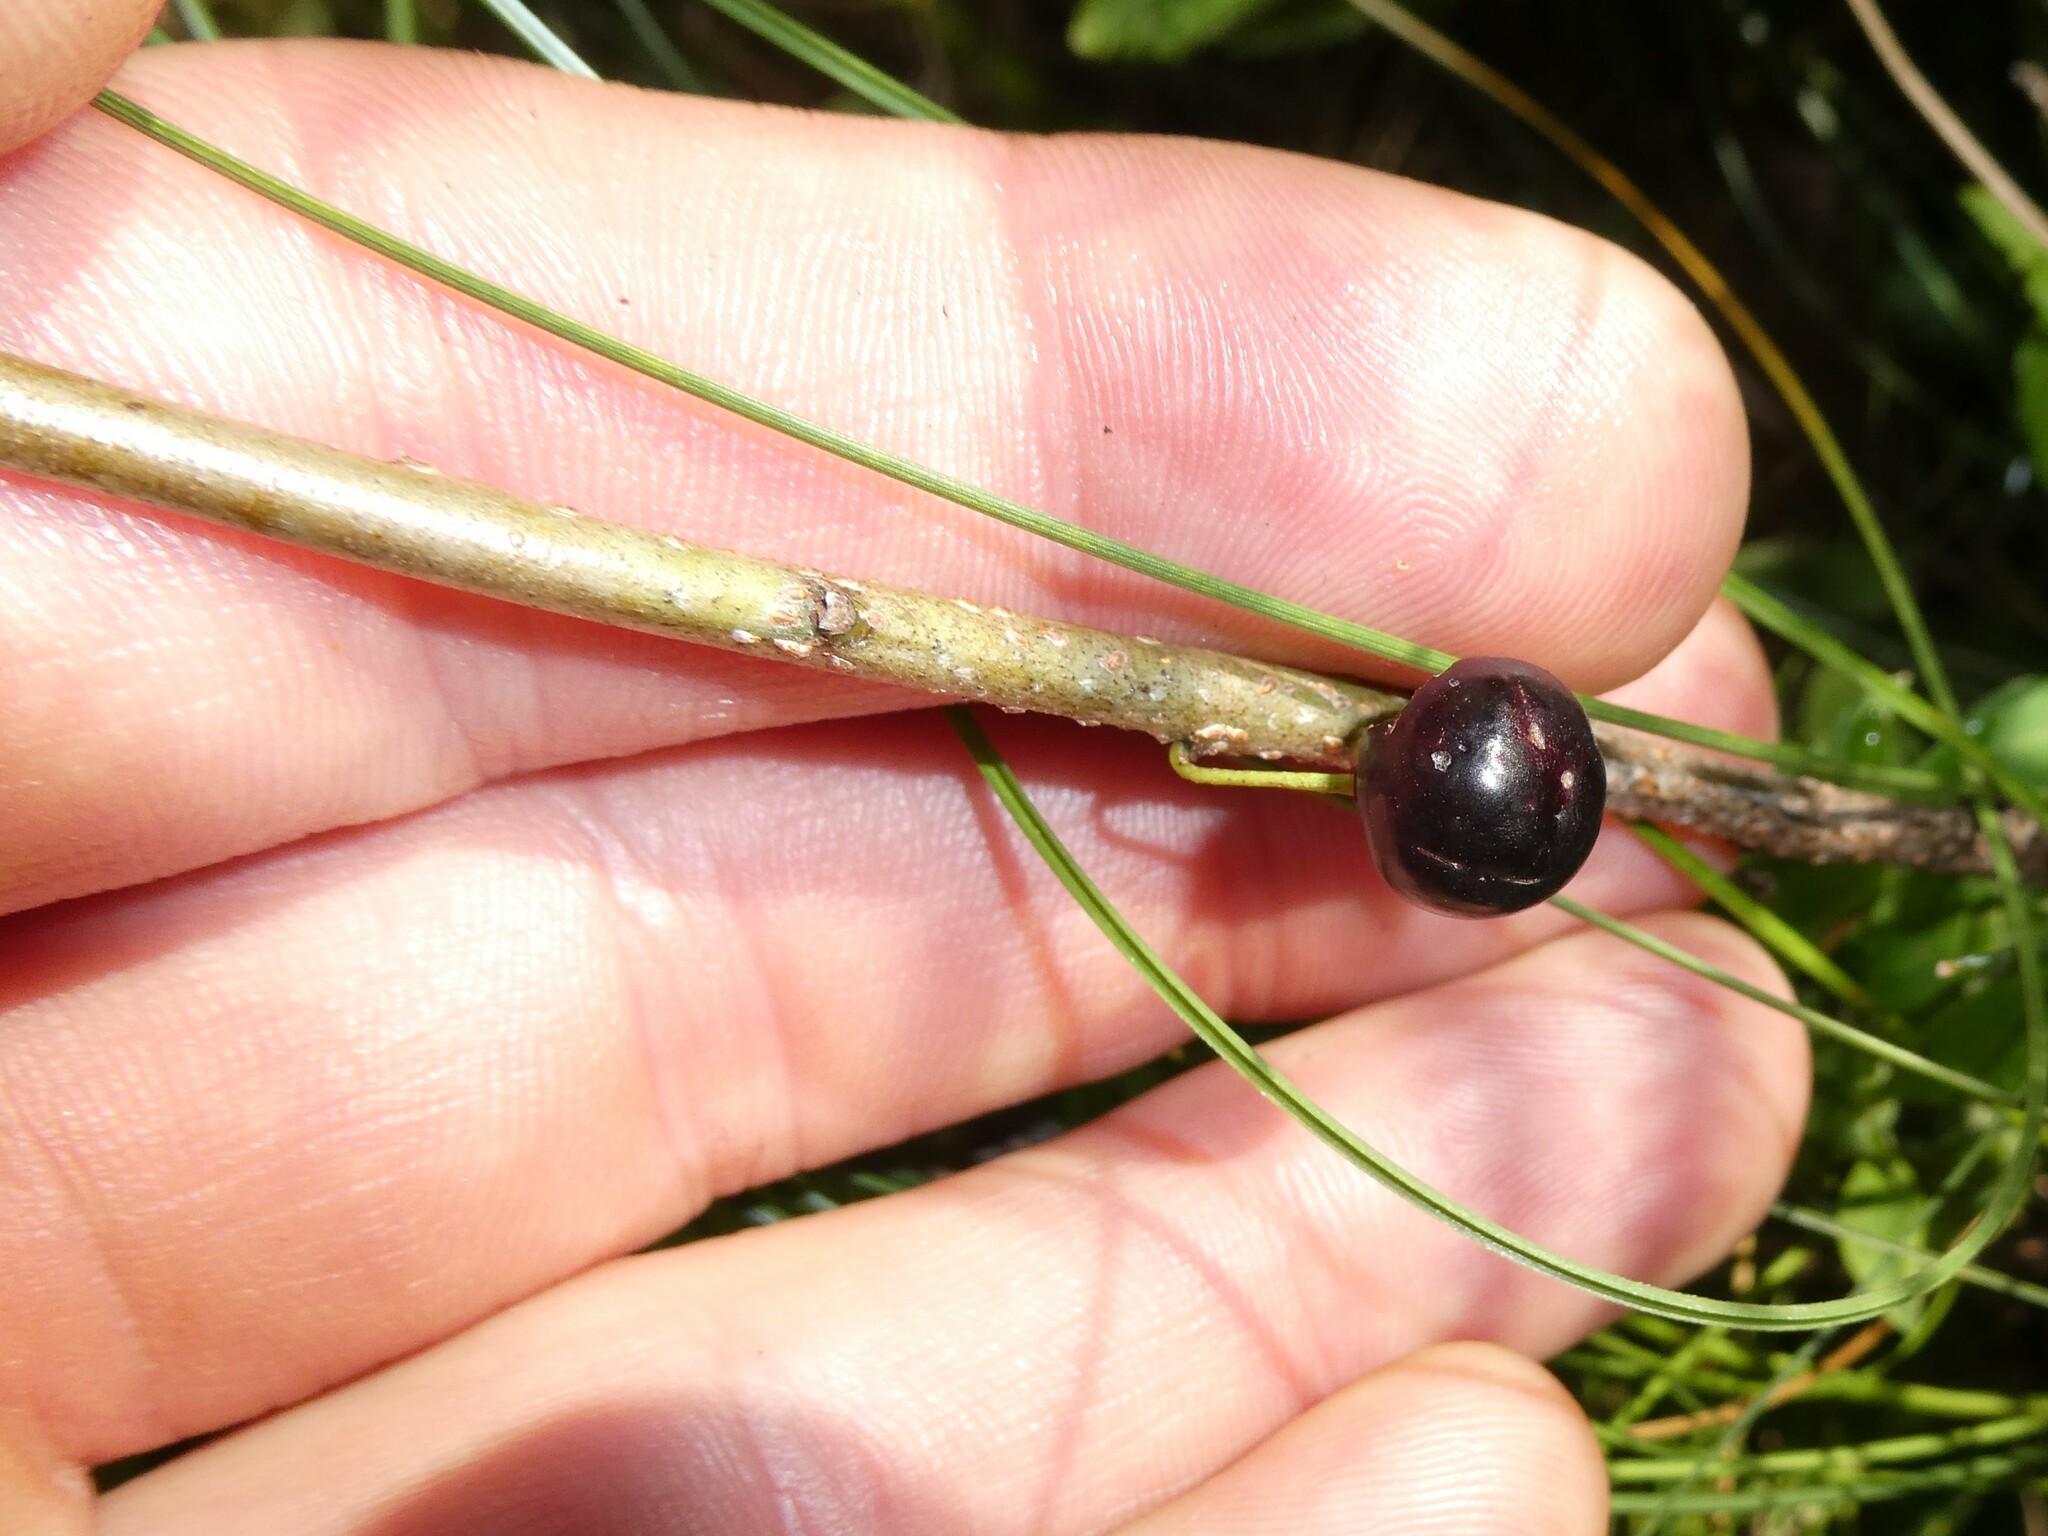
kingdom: Plantae
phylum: Tracheophyta
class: Magnoliopsida
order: Rosales
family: Rhamnaceae
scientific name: Rhamnaceae
